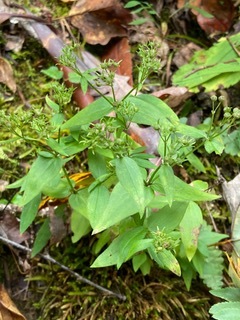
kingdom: Plantae
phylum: Tracheophyta
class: Magnoliopsida
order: Gentianales
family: Rubiaceae
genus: Houstonia
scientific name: Houstonia purpurea
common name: Summer bluet
